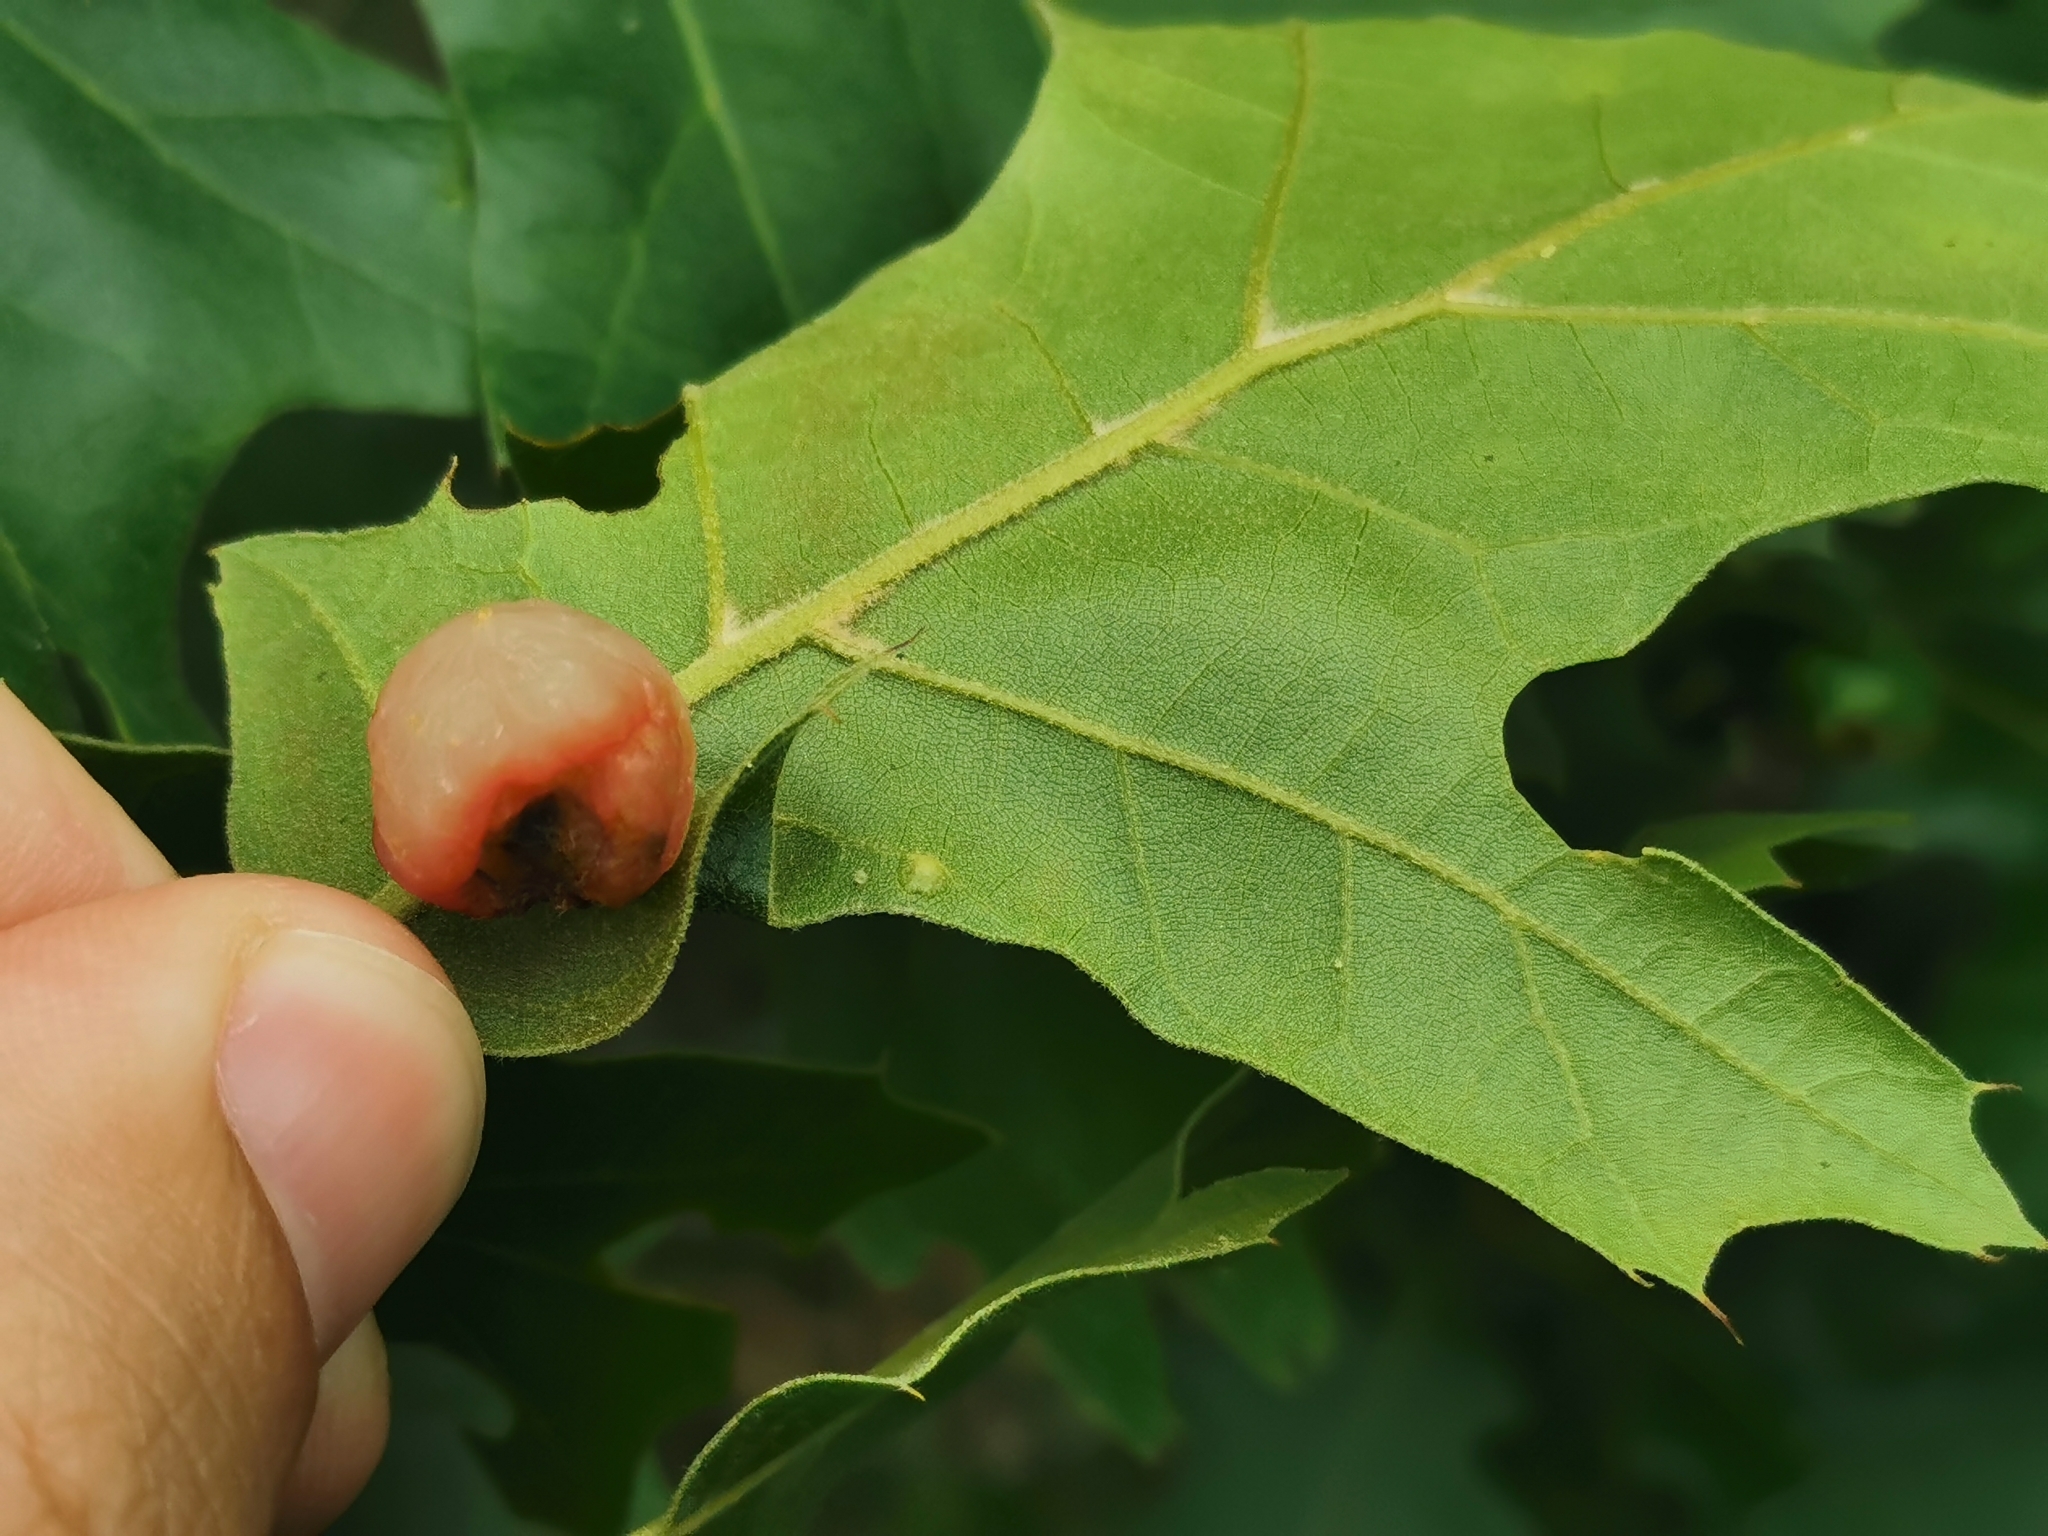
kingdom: Animalia
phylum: Arthropoda
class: Insecta
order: Hymenoptera
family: Cynipidae
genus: Amphibolips
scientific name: Amphibolips
